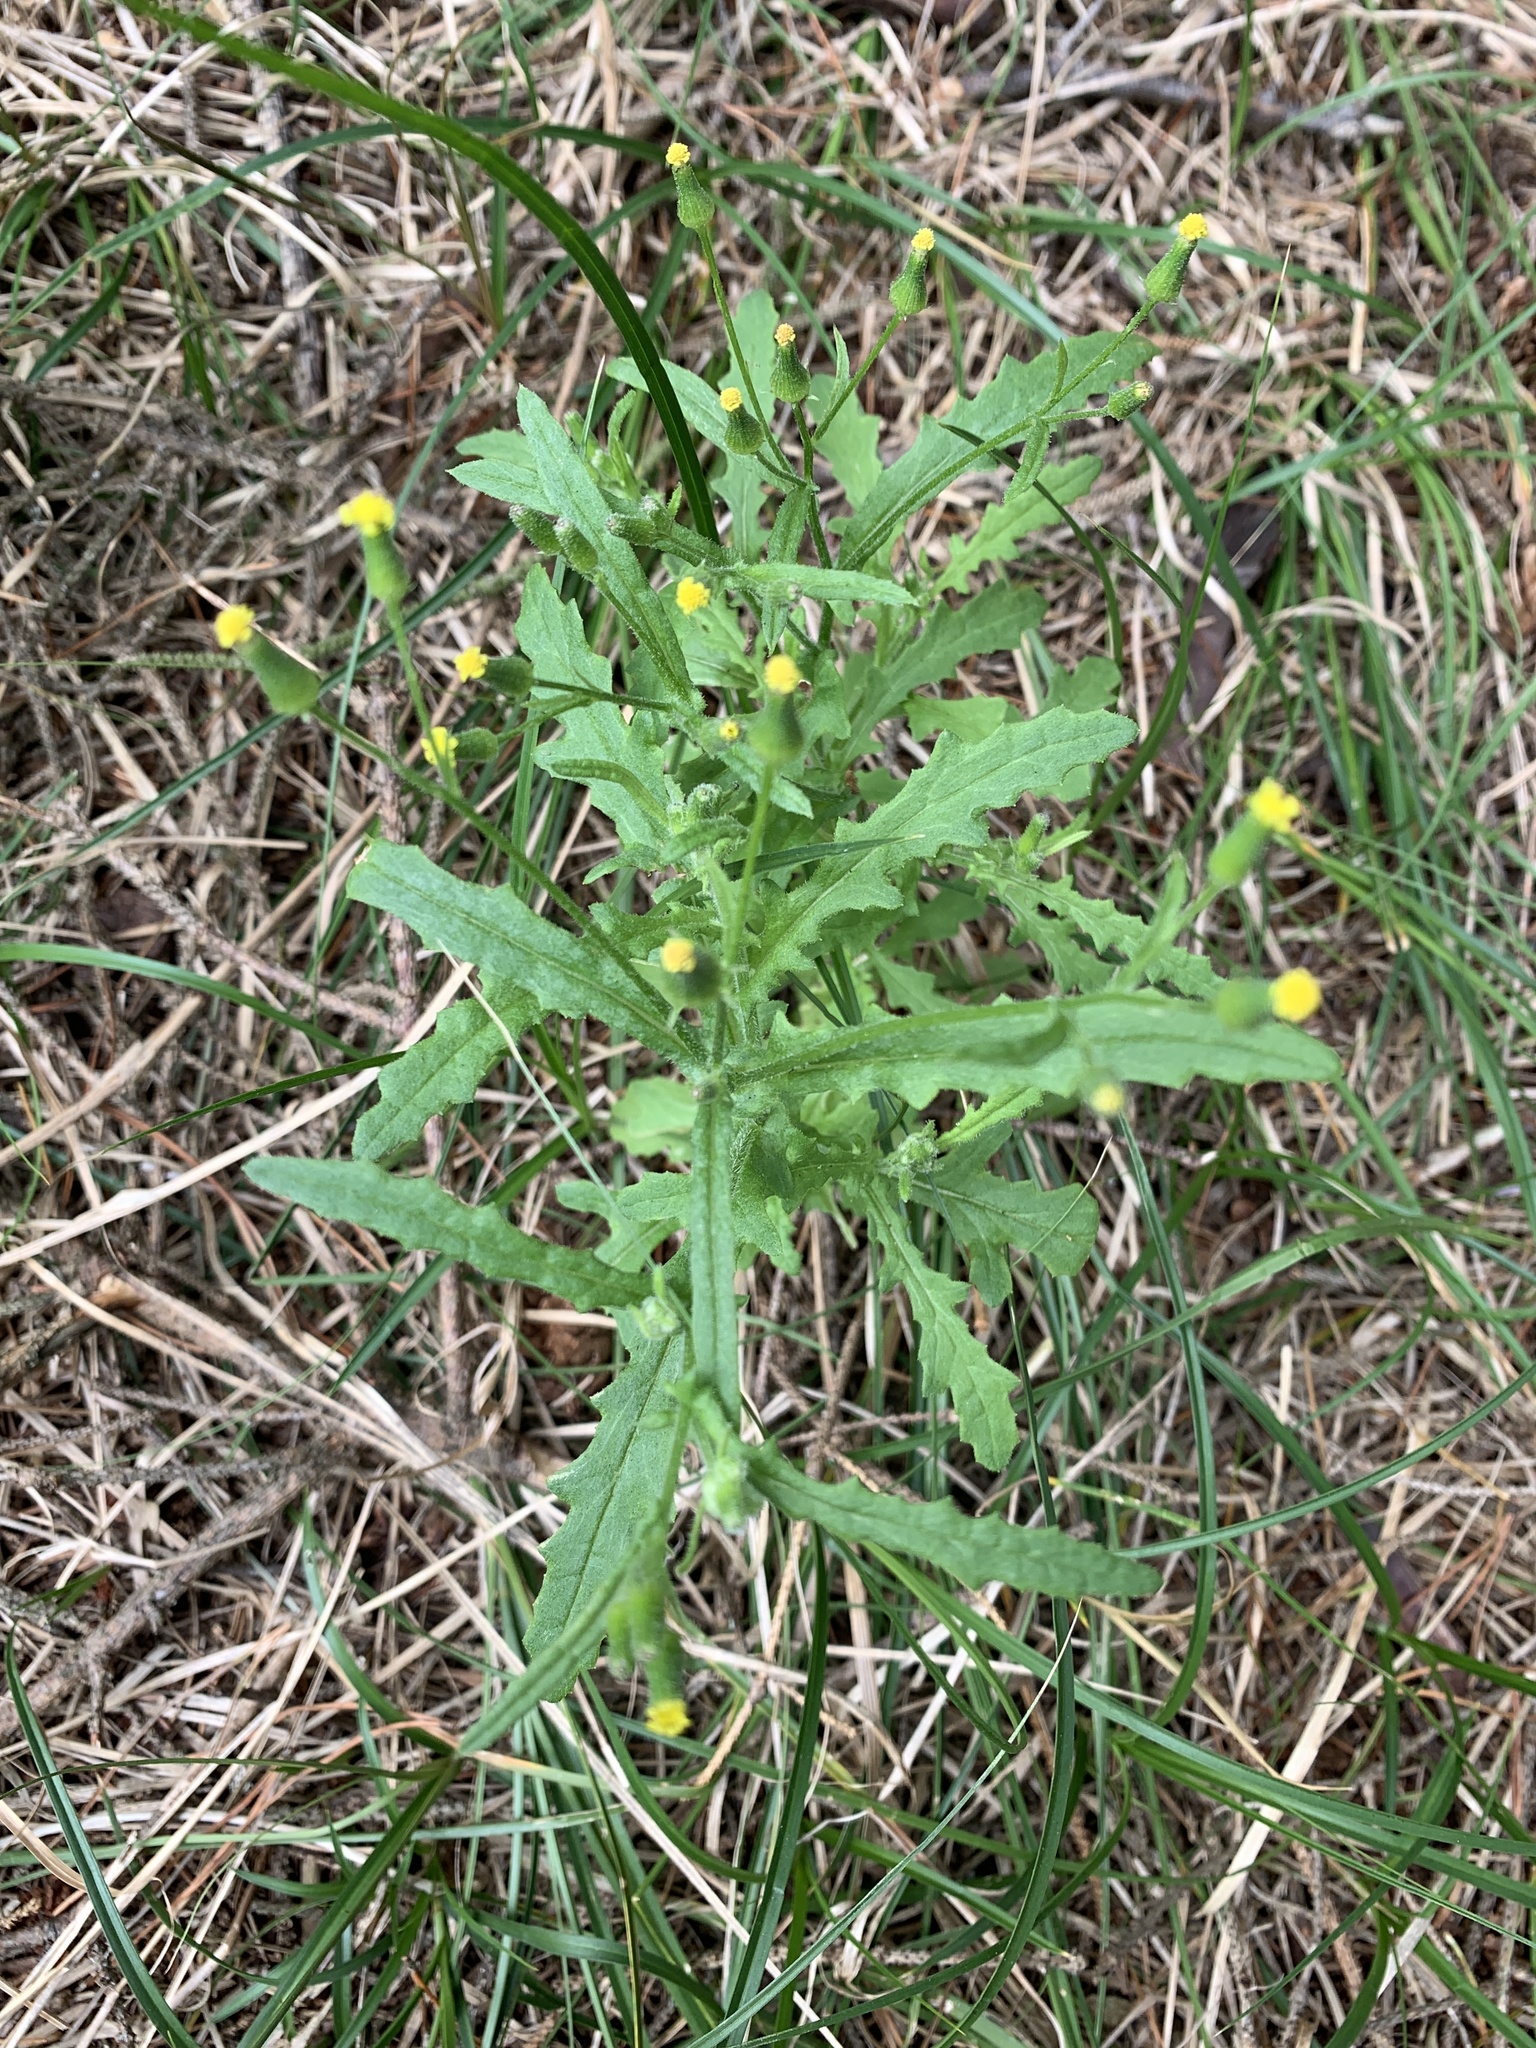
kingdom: Plantae
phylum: Tracheophyta
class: Magnoliopsida
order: Asterales
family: Asteraceae
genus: Senecio
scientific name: Senecio sylvaticus
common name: Woodland ragwort
